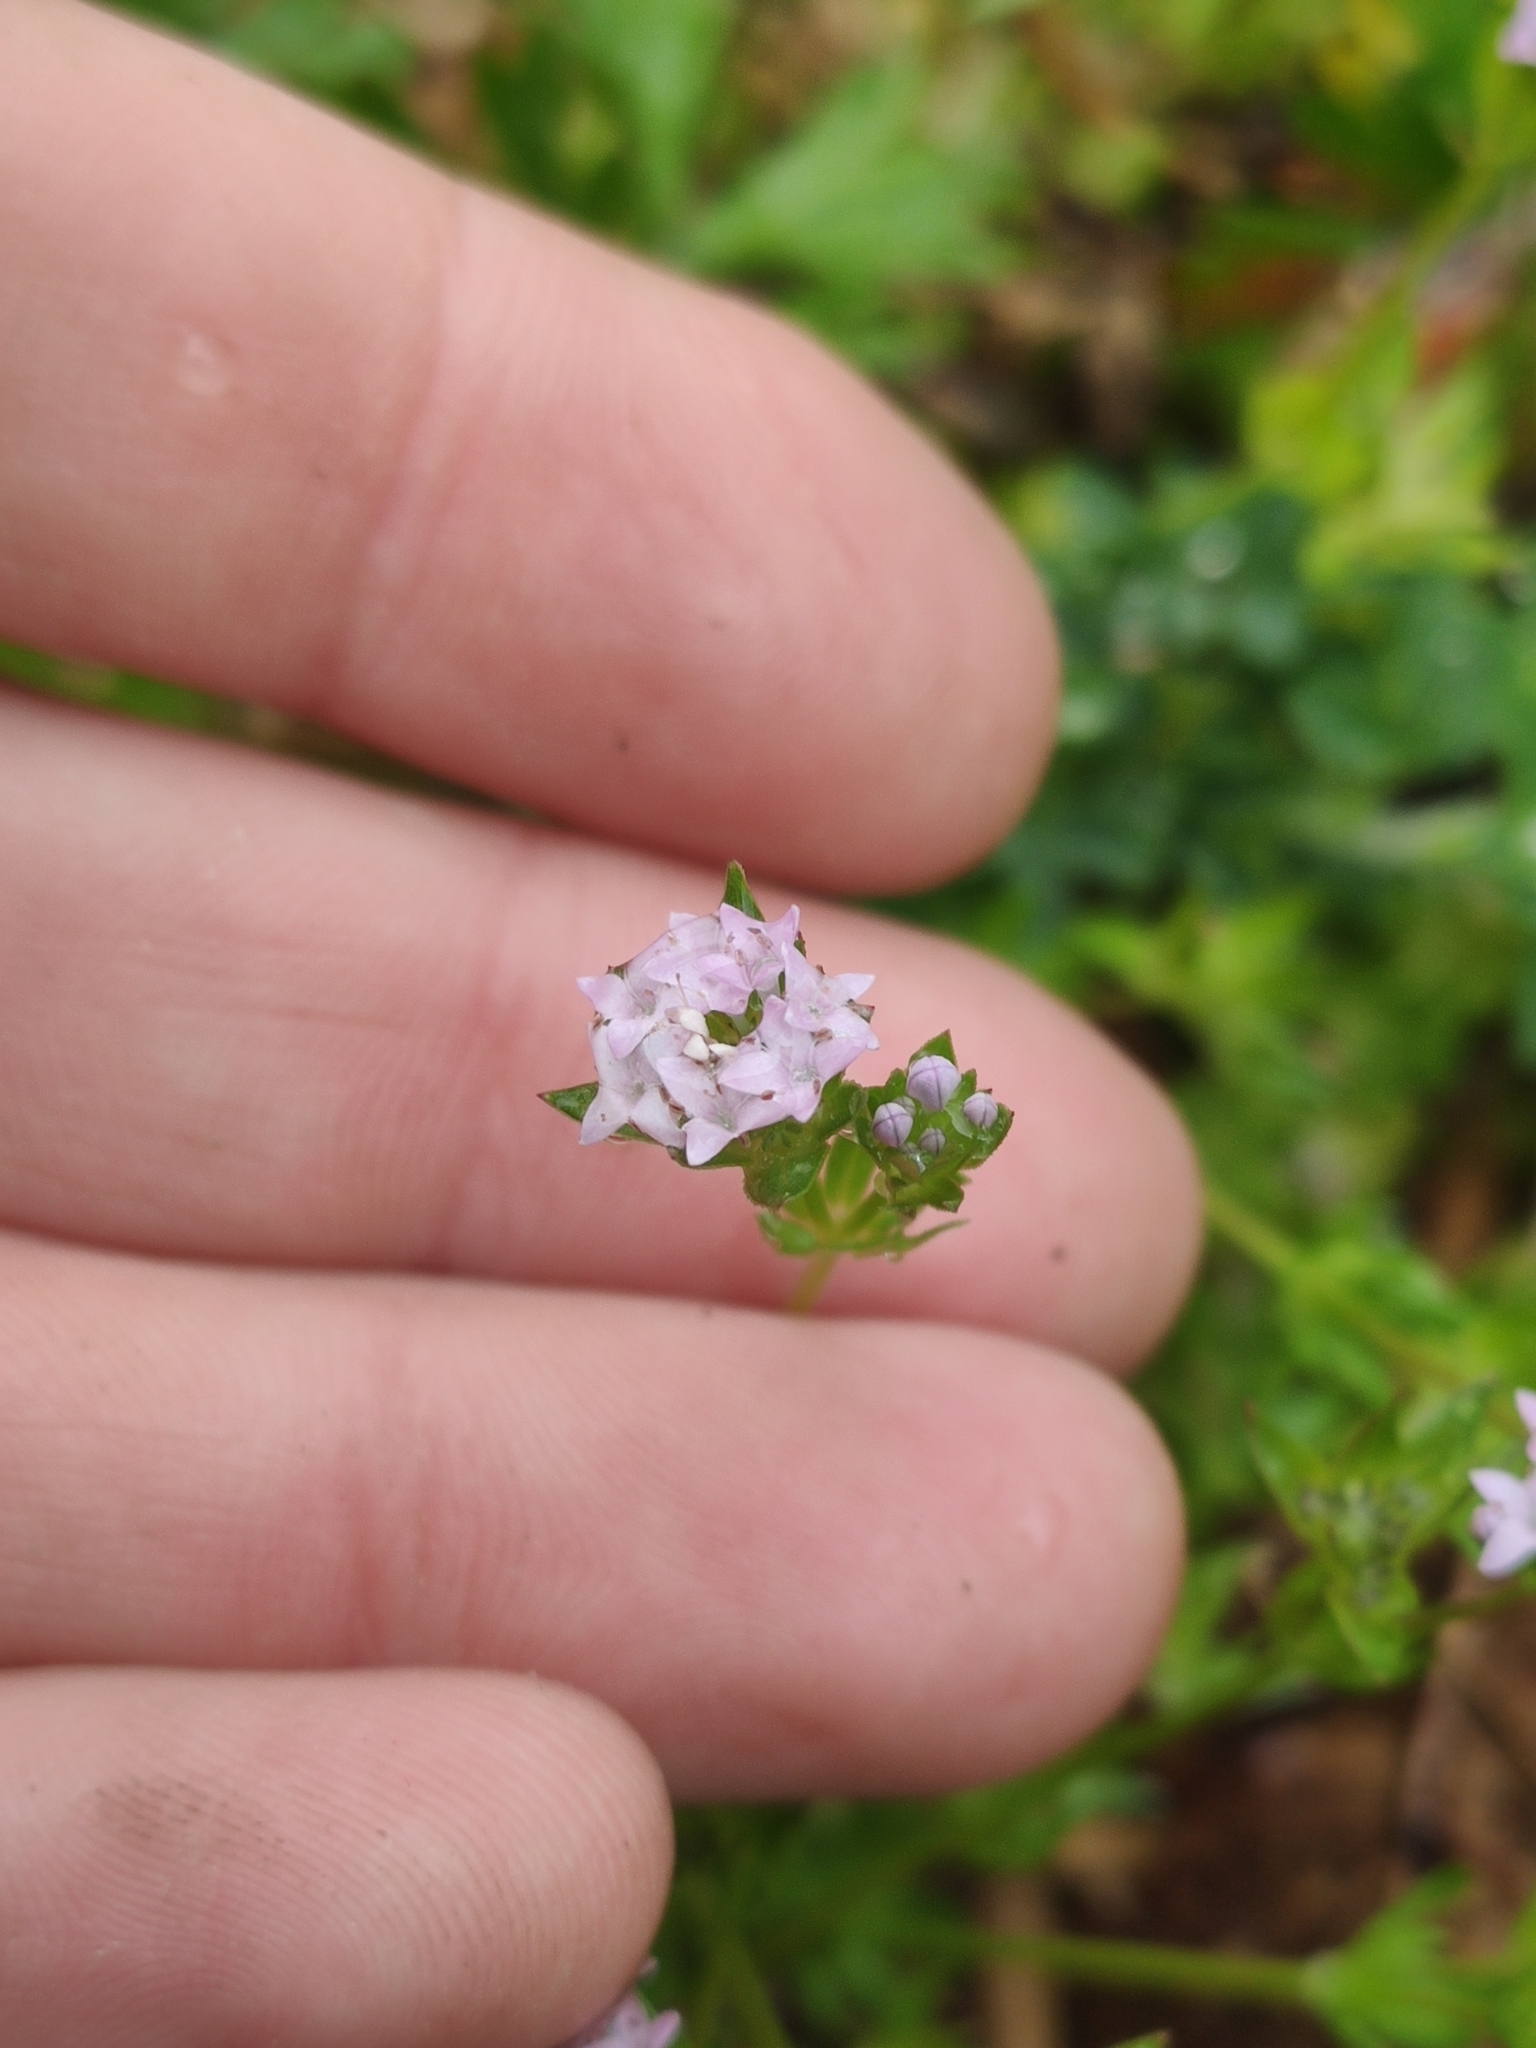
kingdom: Plantae
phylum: Tracheophyta
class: Magnoliopsida
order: Gentianales
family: Rubiaceae
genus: Sherardia
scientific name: Sherardia arvensis
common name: Field madder
